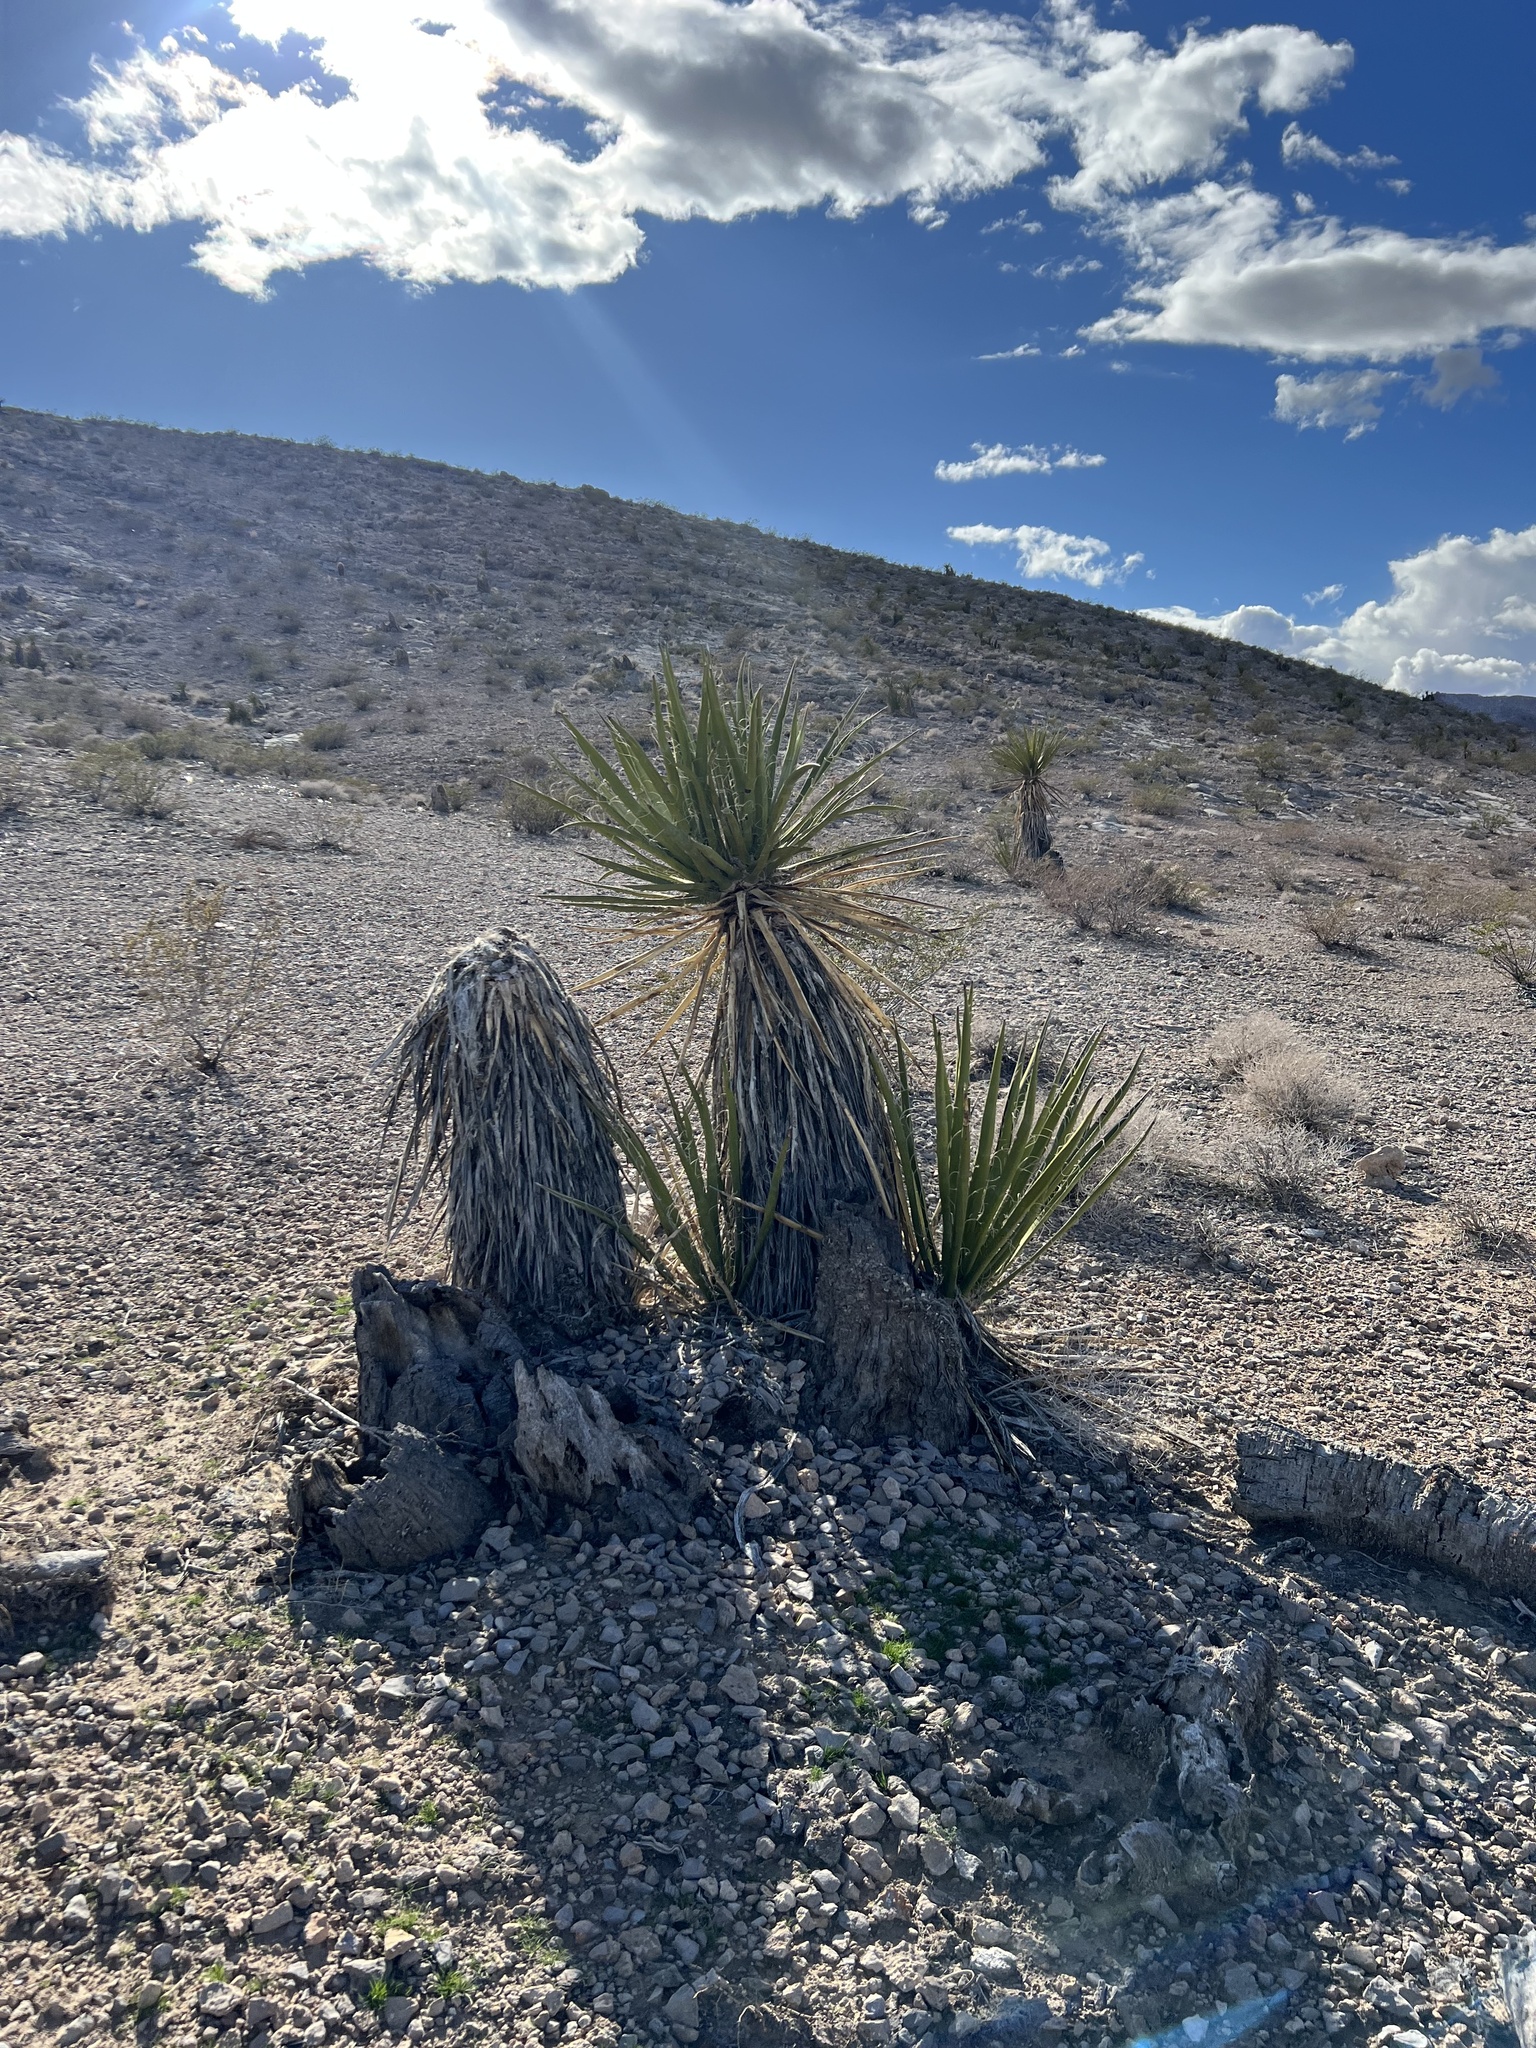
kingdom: Plantae
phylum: Tracheophyta
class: Liliopsida
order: Asparagales
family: Asparagaceae
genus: Yucca
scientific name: Yucca schidigera
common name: Mojave yucca
